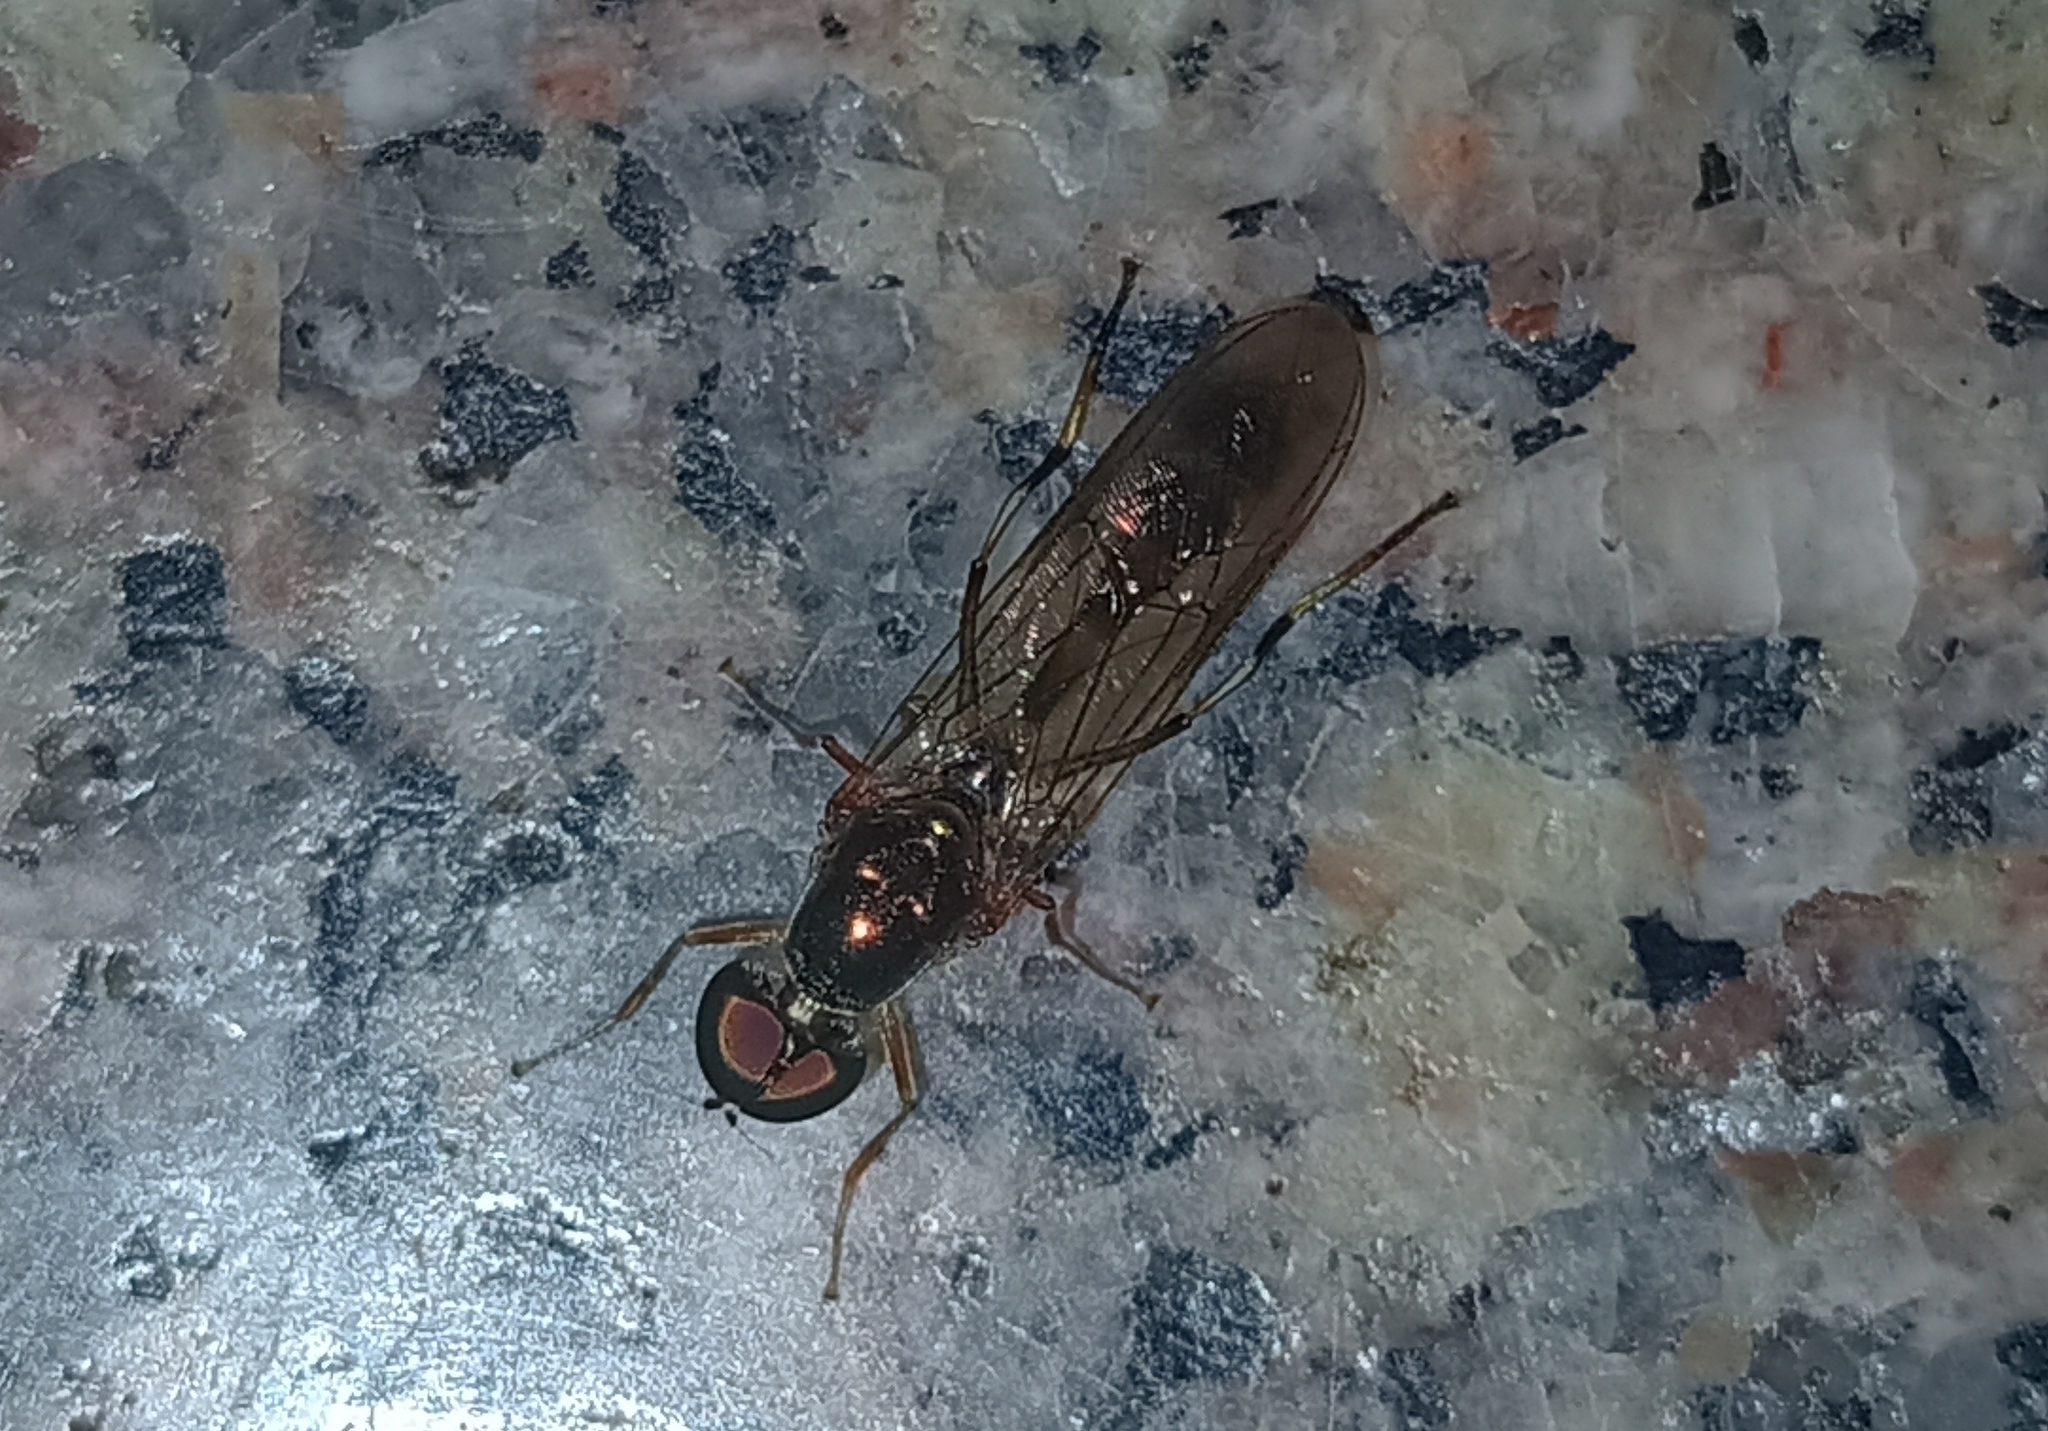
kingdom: Animalia
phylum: Arthropoda
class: Insecta
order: Diptera
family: Stratiomyidae
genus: Sargus
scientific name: Sargus fasciatus
